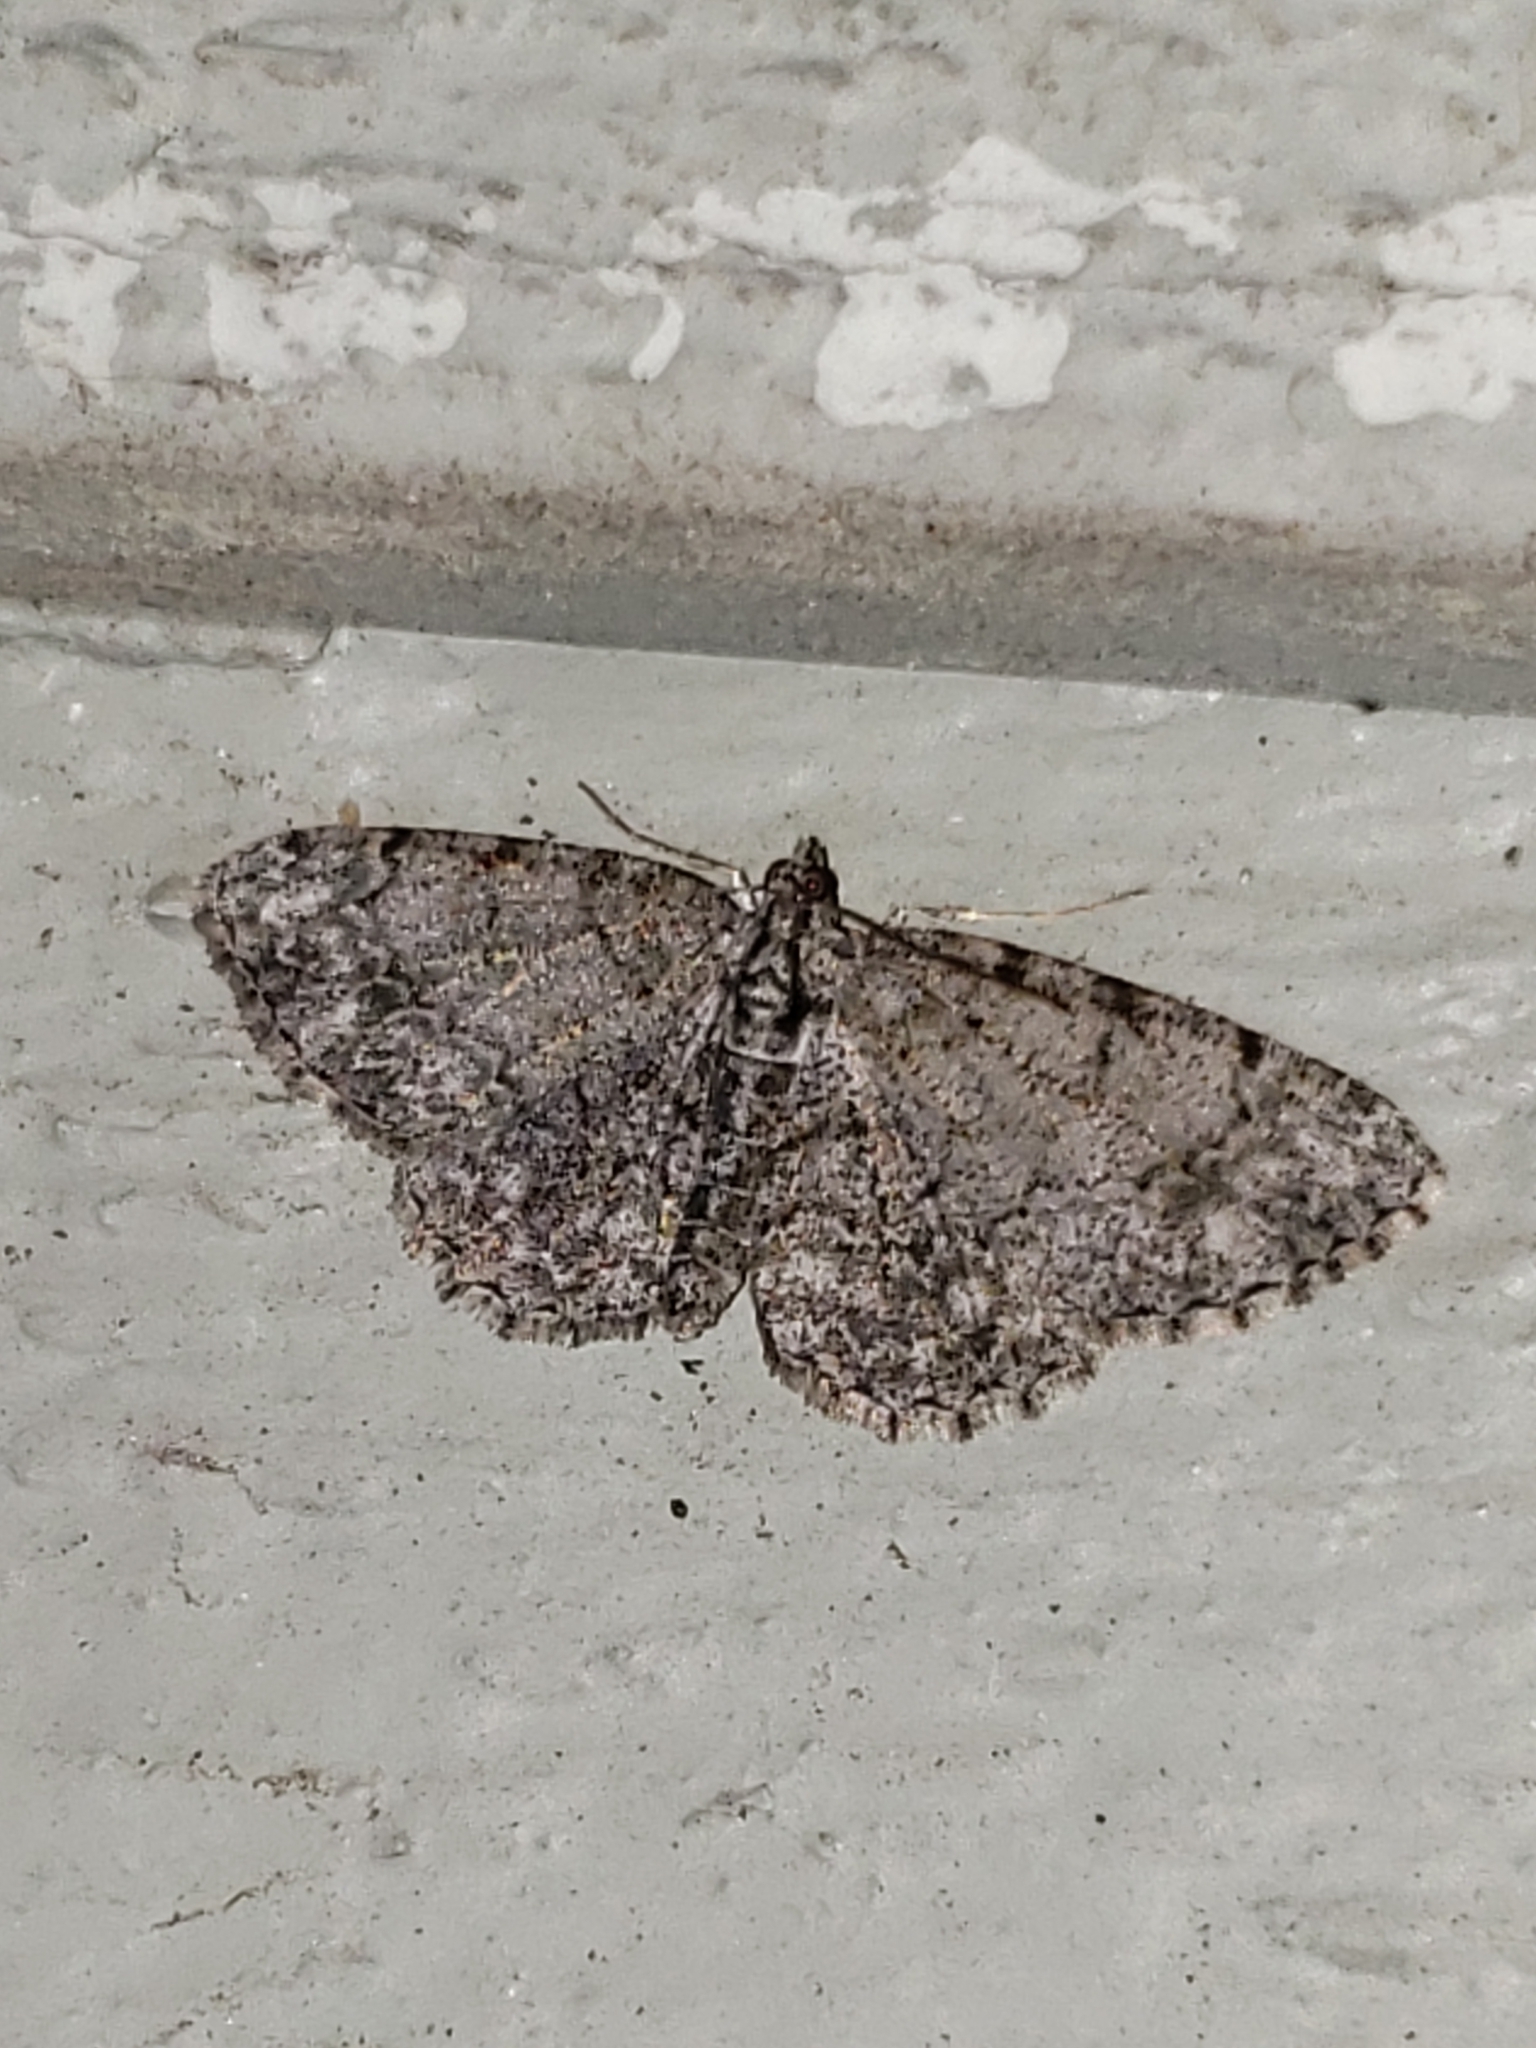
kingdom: Animalia
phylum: Arthropoda
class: Insecta
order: Lepidoptera
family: Geometridae
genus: Protoboarmia
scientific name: Protoboarmia porcelaria
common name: Porcelain gray
